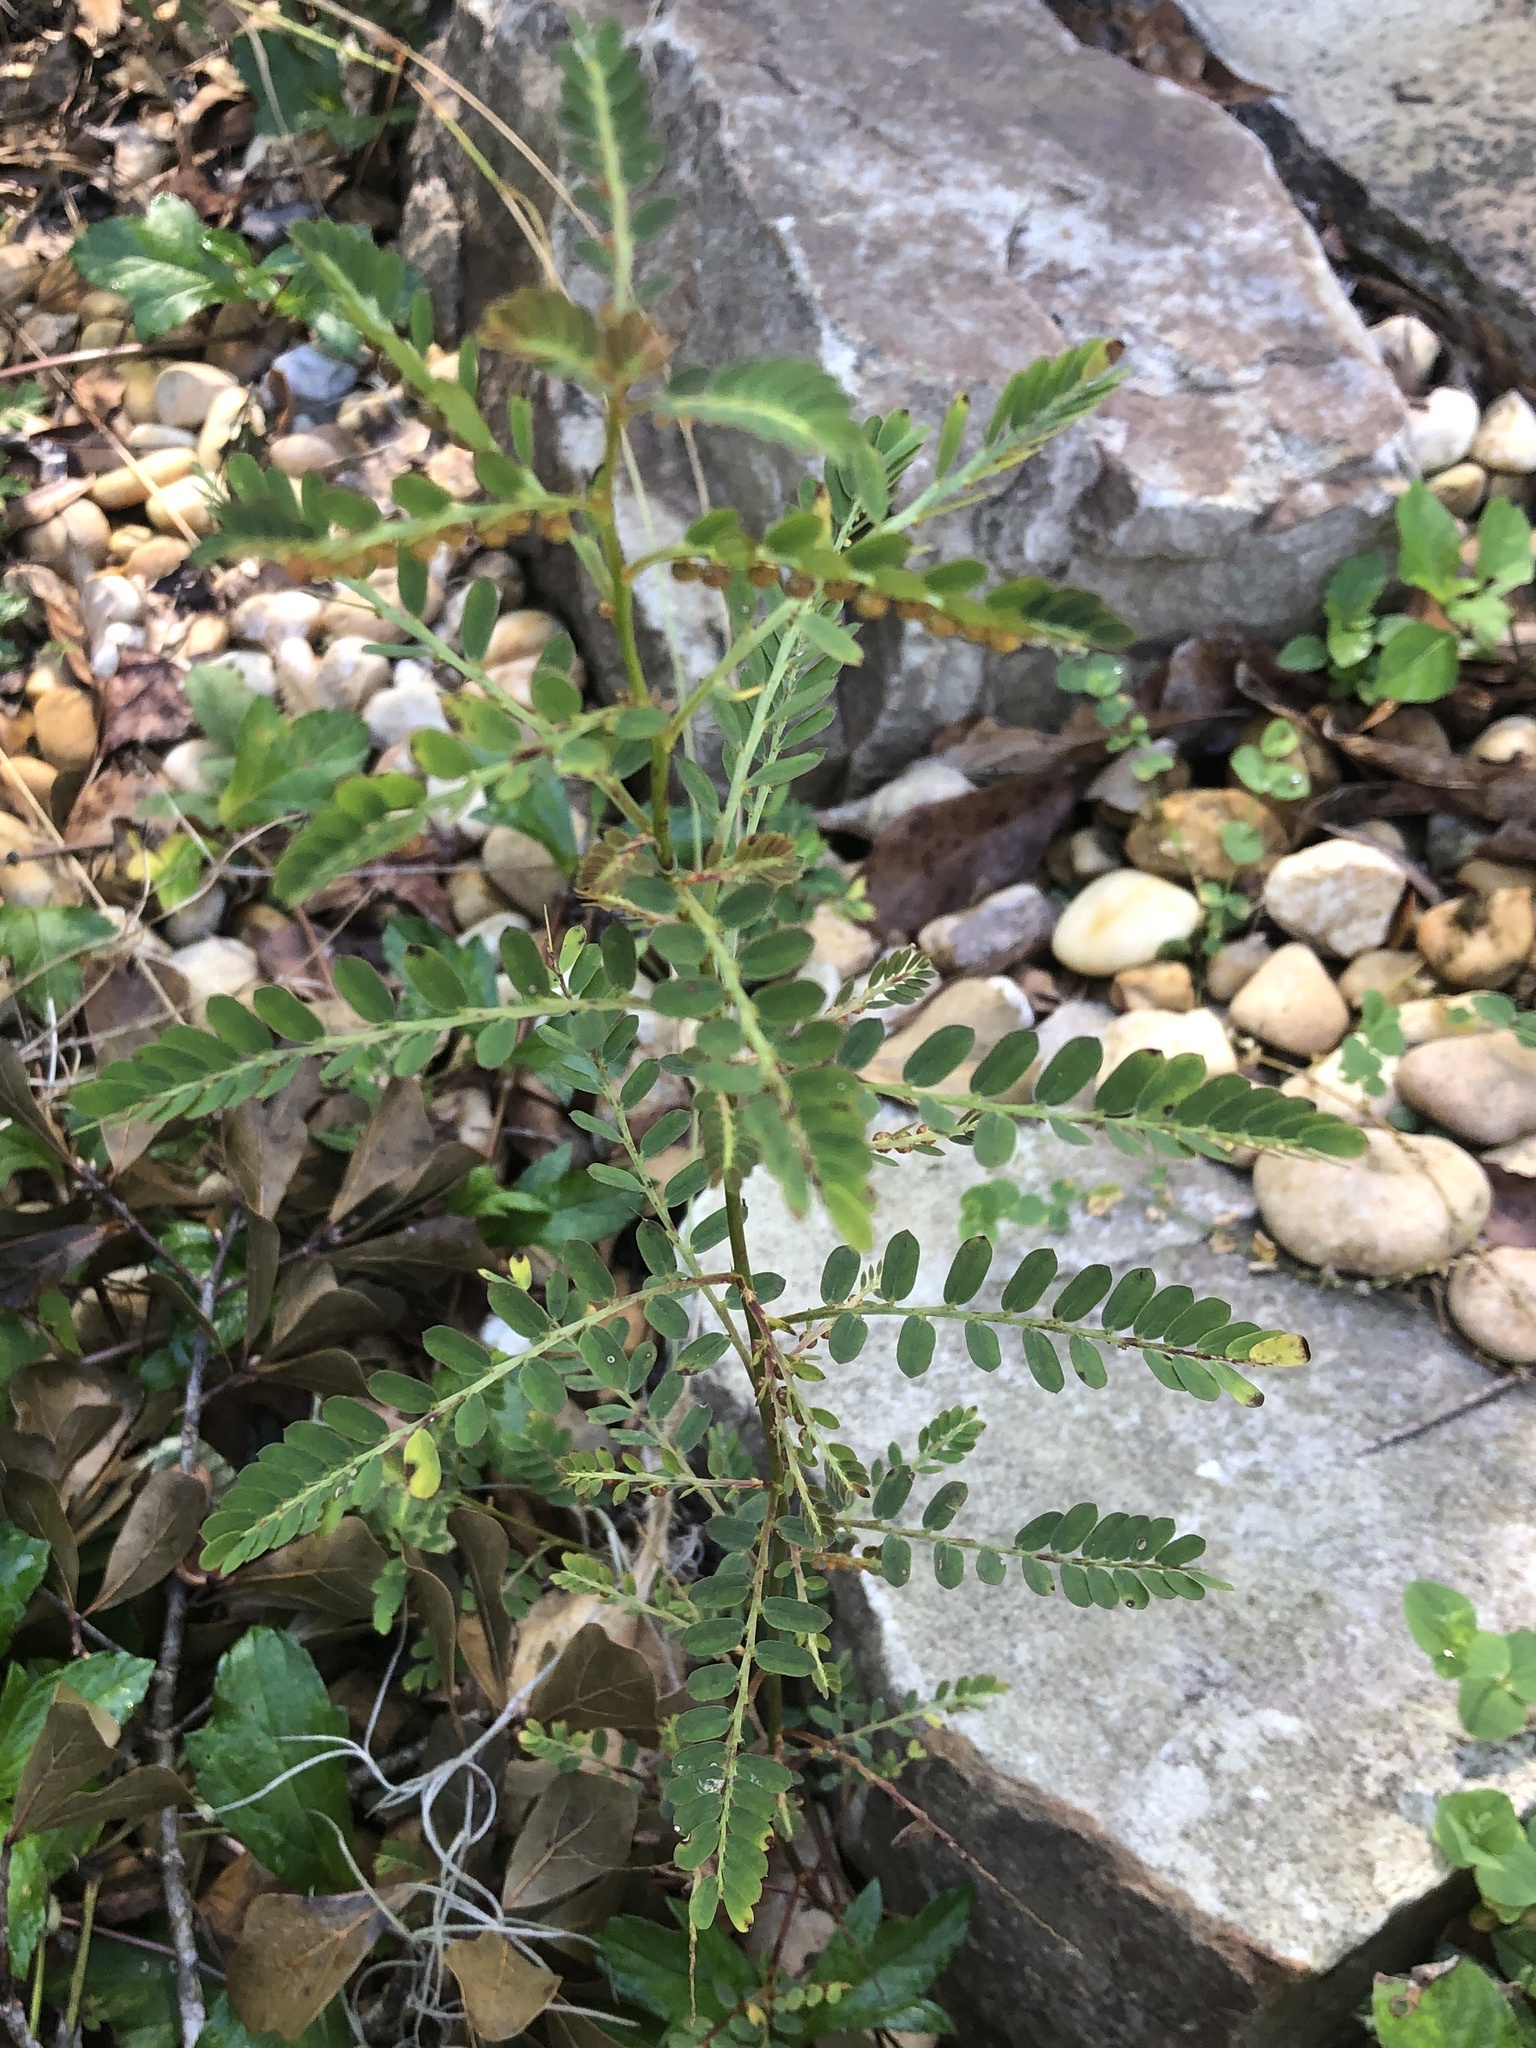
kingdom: Plantae
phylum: Tracheophyta
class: Magnoliopsida
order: Malpighiales
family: Phyllanthaceae
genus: Phyllanthus
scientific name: Phyllanthus urinaria
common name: Chamber bitter
